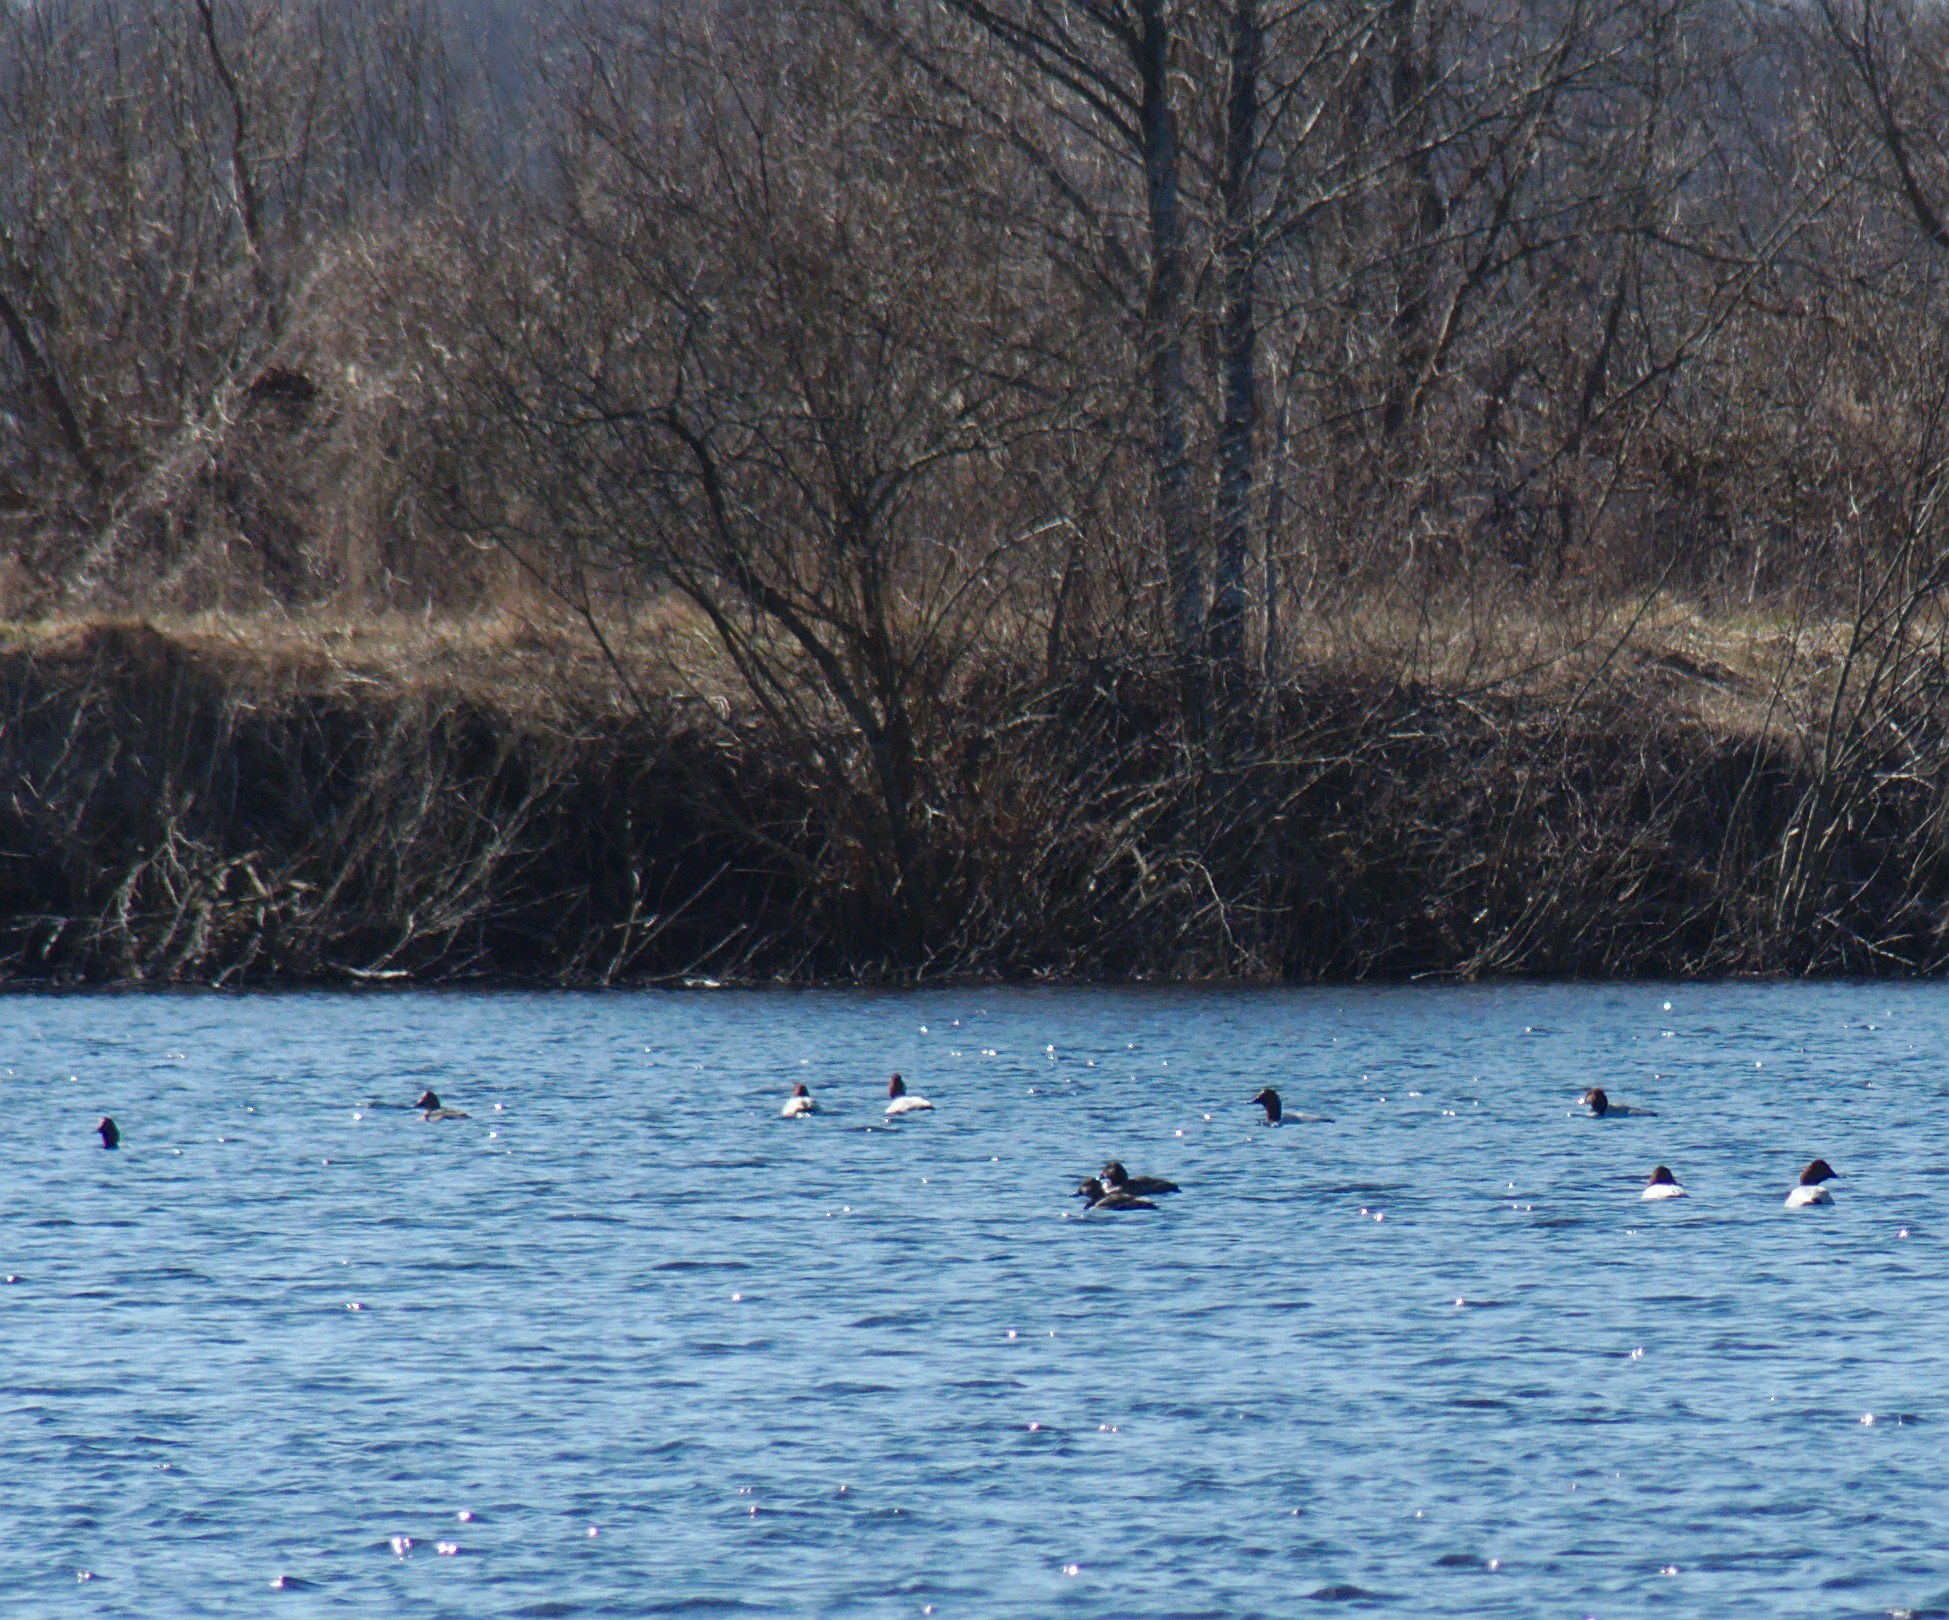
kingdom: Animalia
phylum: Chordata
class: Aves
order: Anseriformes
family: Anatidae
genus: Aythya
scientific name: Aythya ferina
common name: Common pochard
